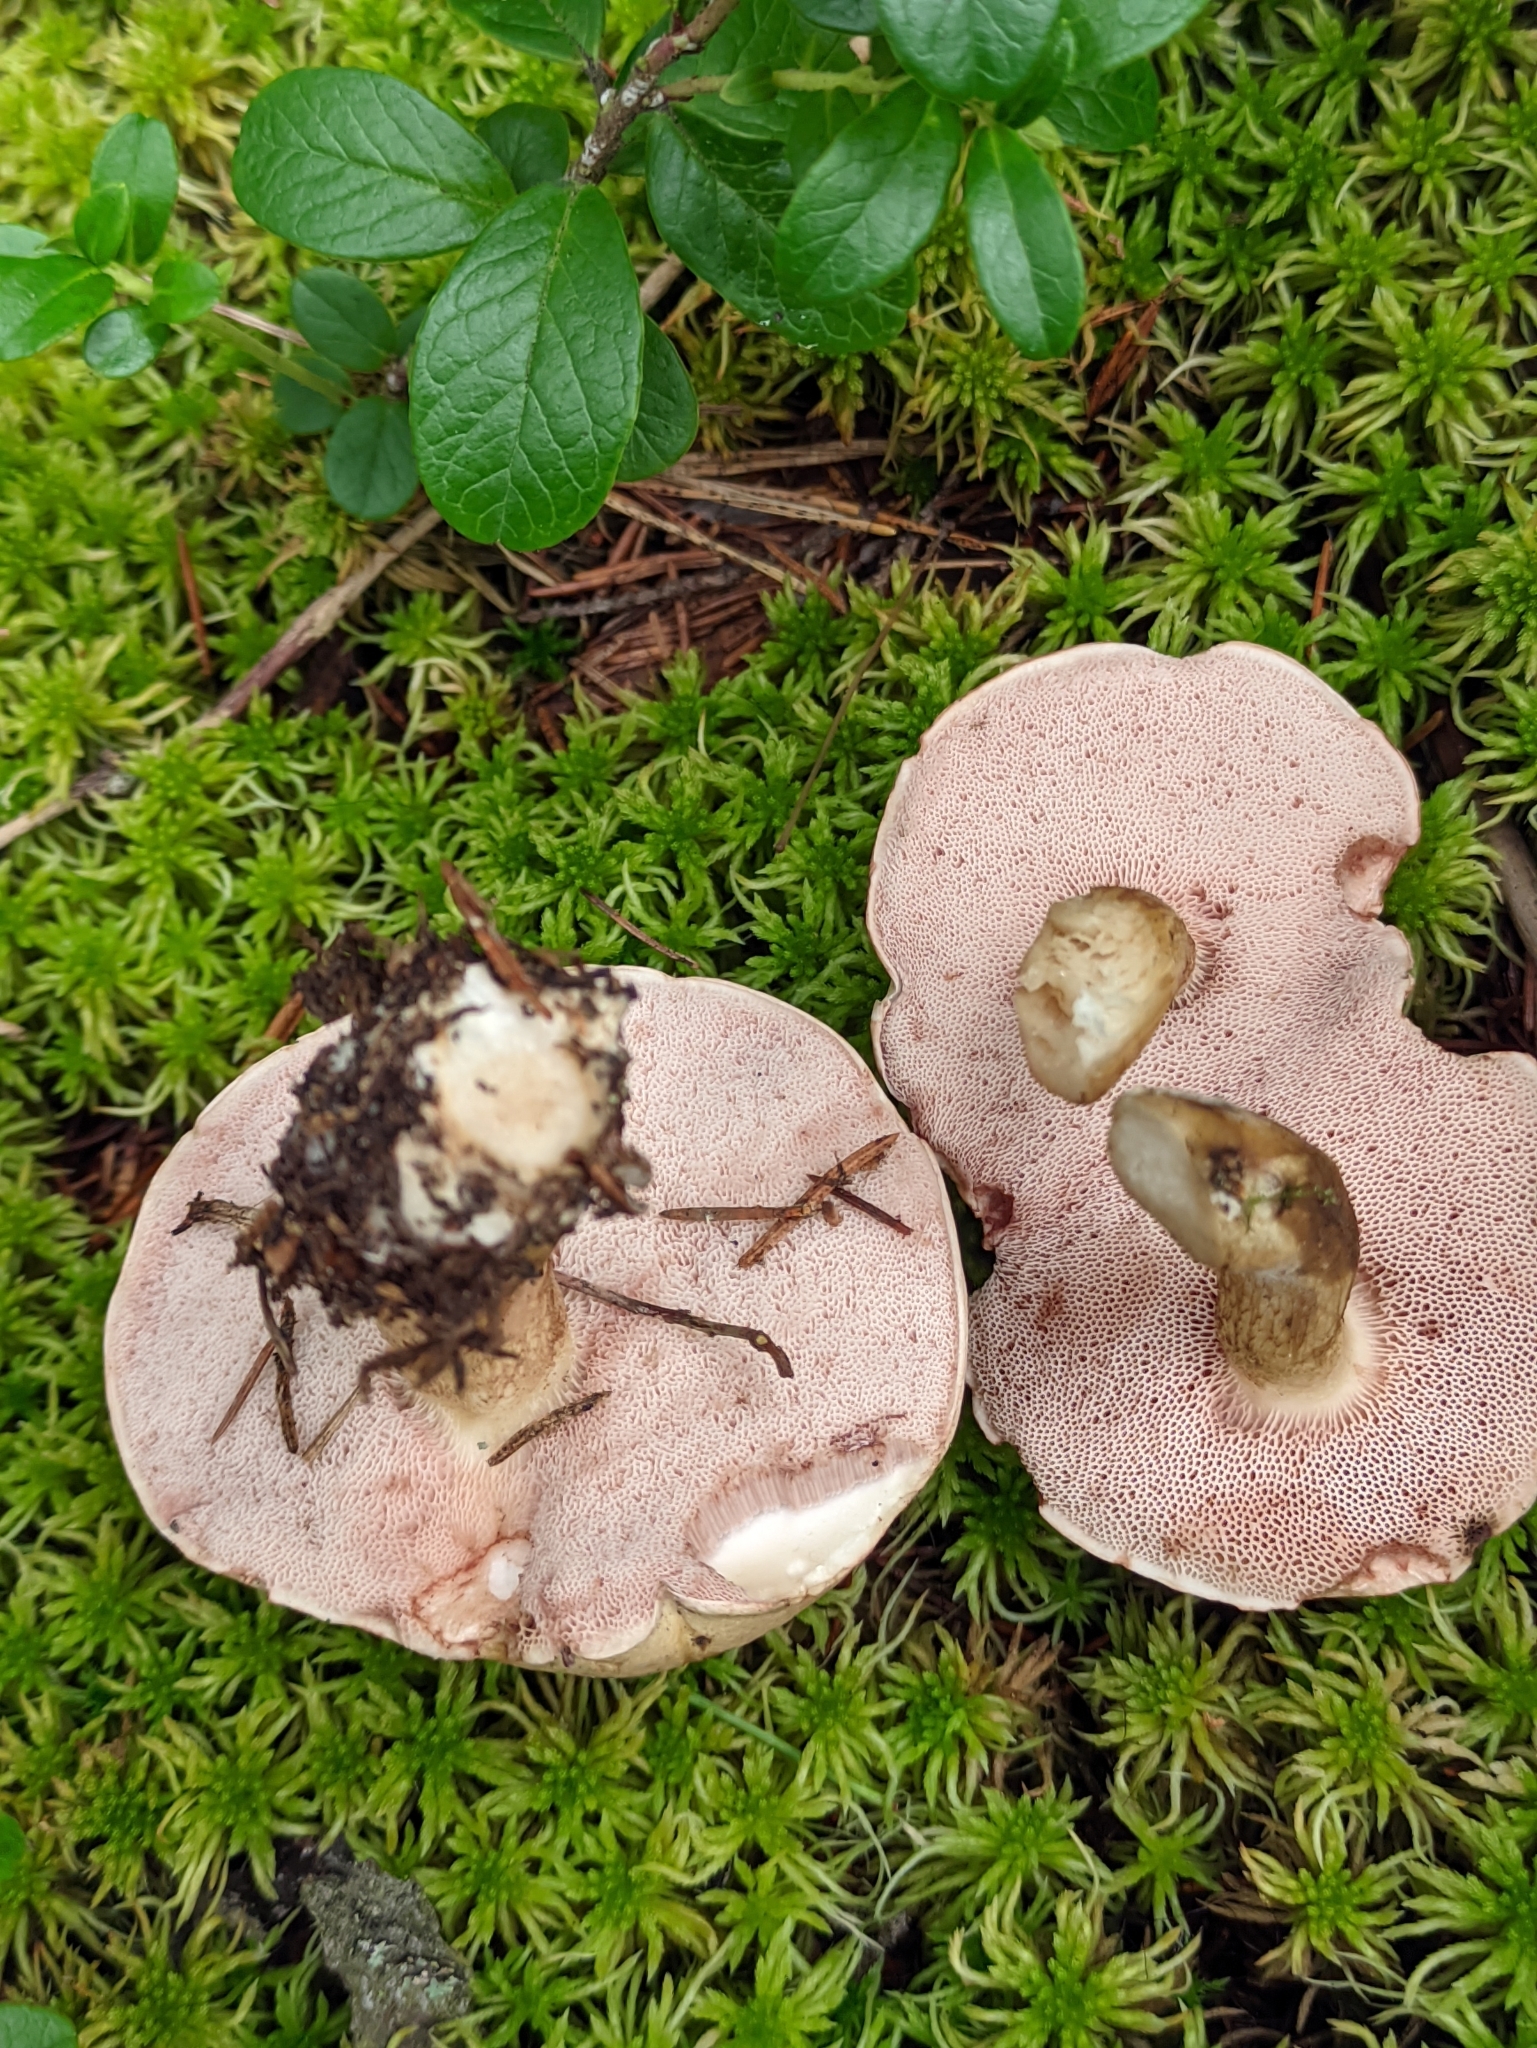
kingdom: Fungi
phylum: Basidiomycota
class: Agaricomycetes
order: Boletales
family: Boletaceae
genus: Tylopilus
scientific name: Tylopilus felleus
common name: Bitter bolete
